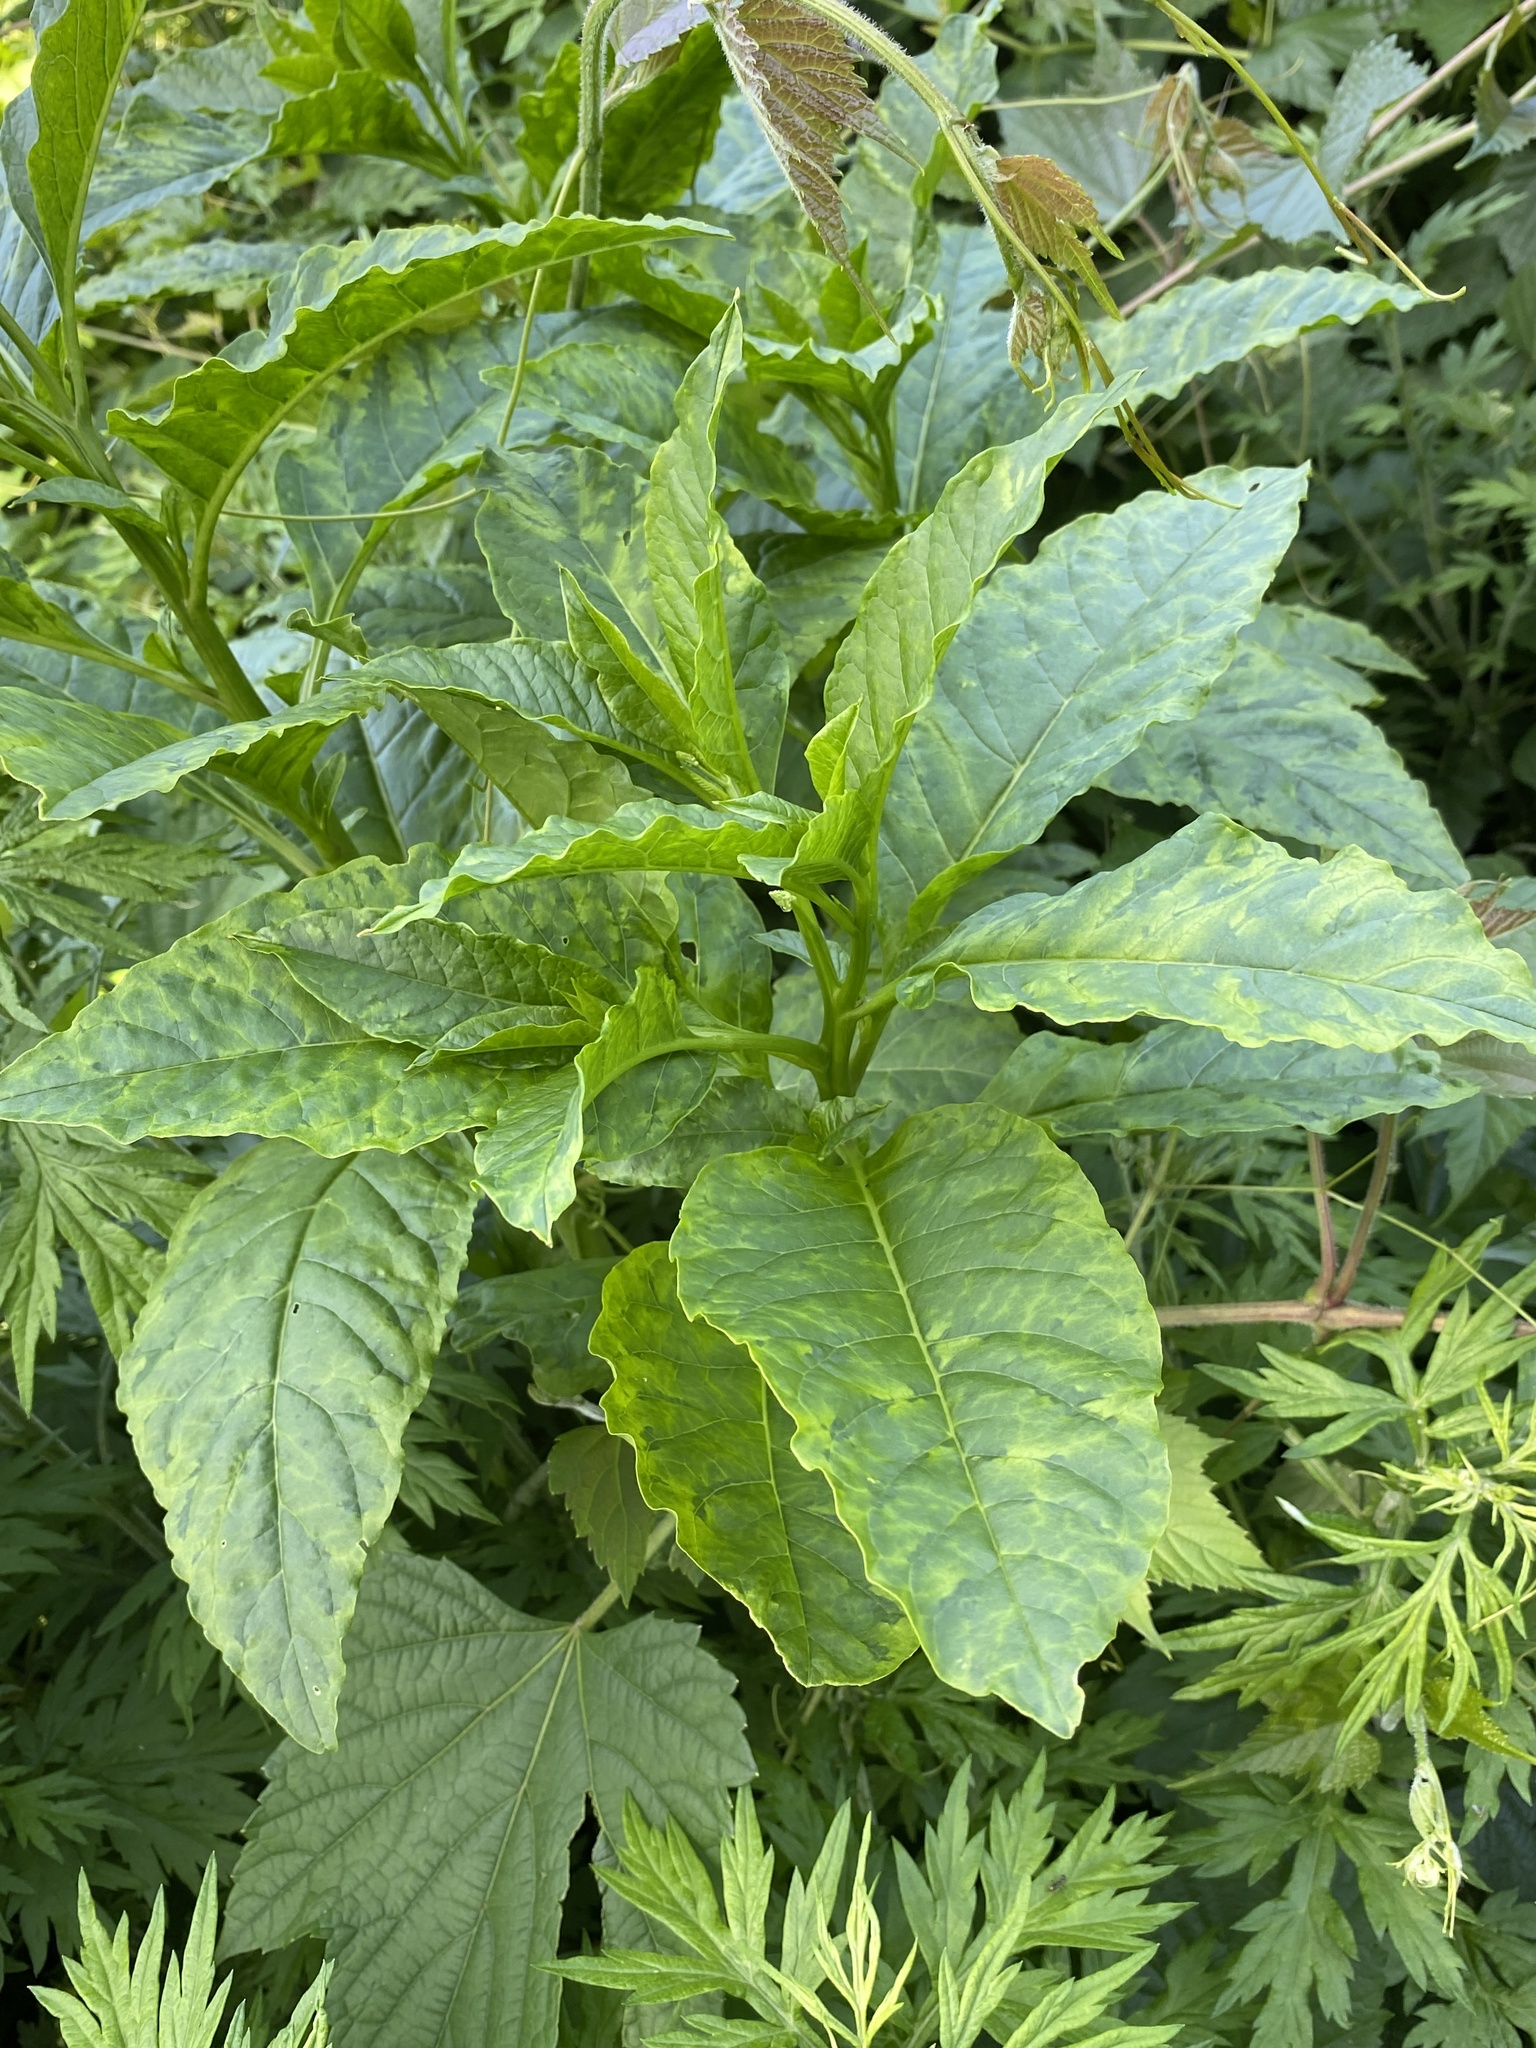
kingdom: Viruses
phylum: Pisuviricota
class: Stelpaviricetes
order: Patatavirales
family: Potyviridae
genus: Potyvirus
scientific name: Potyvirus Pokeweed mosaic virus
